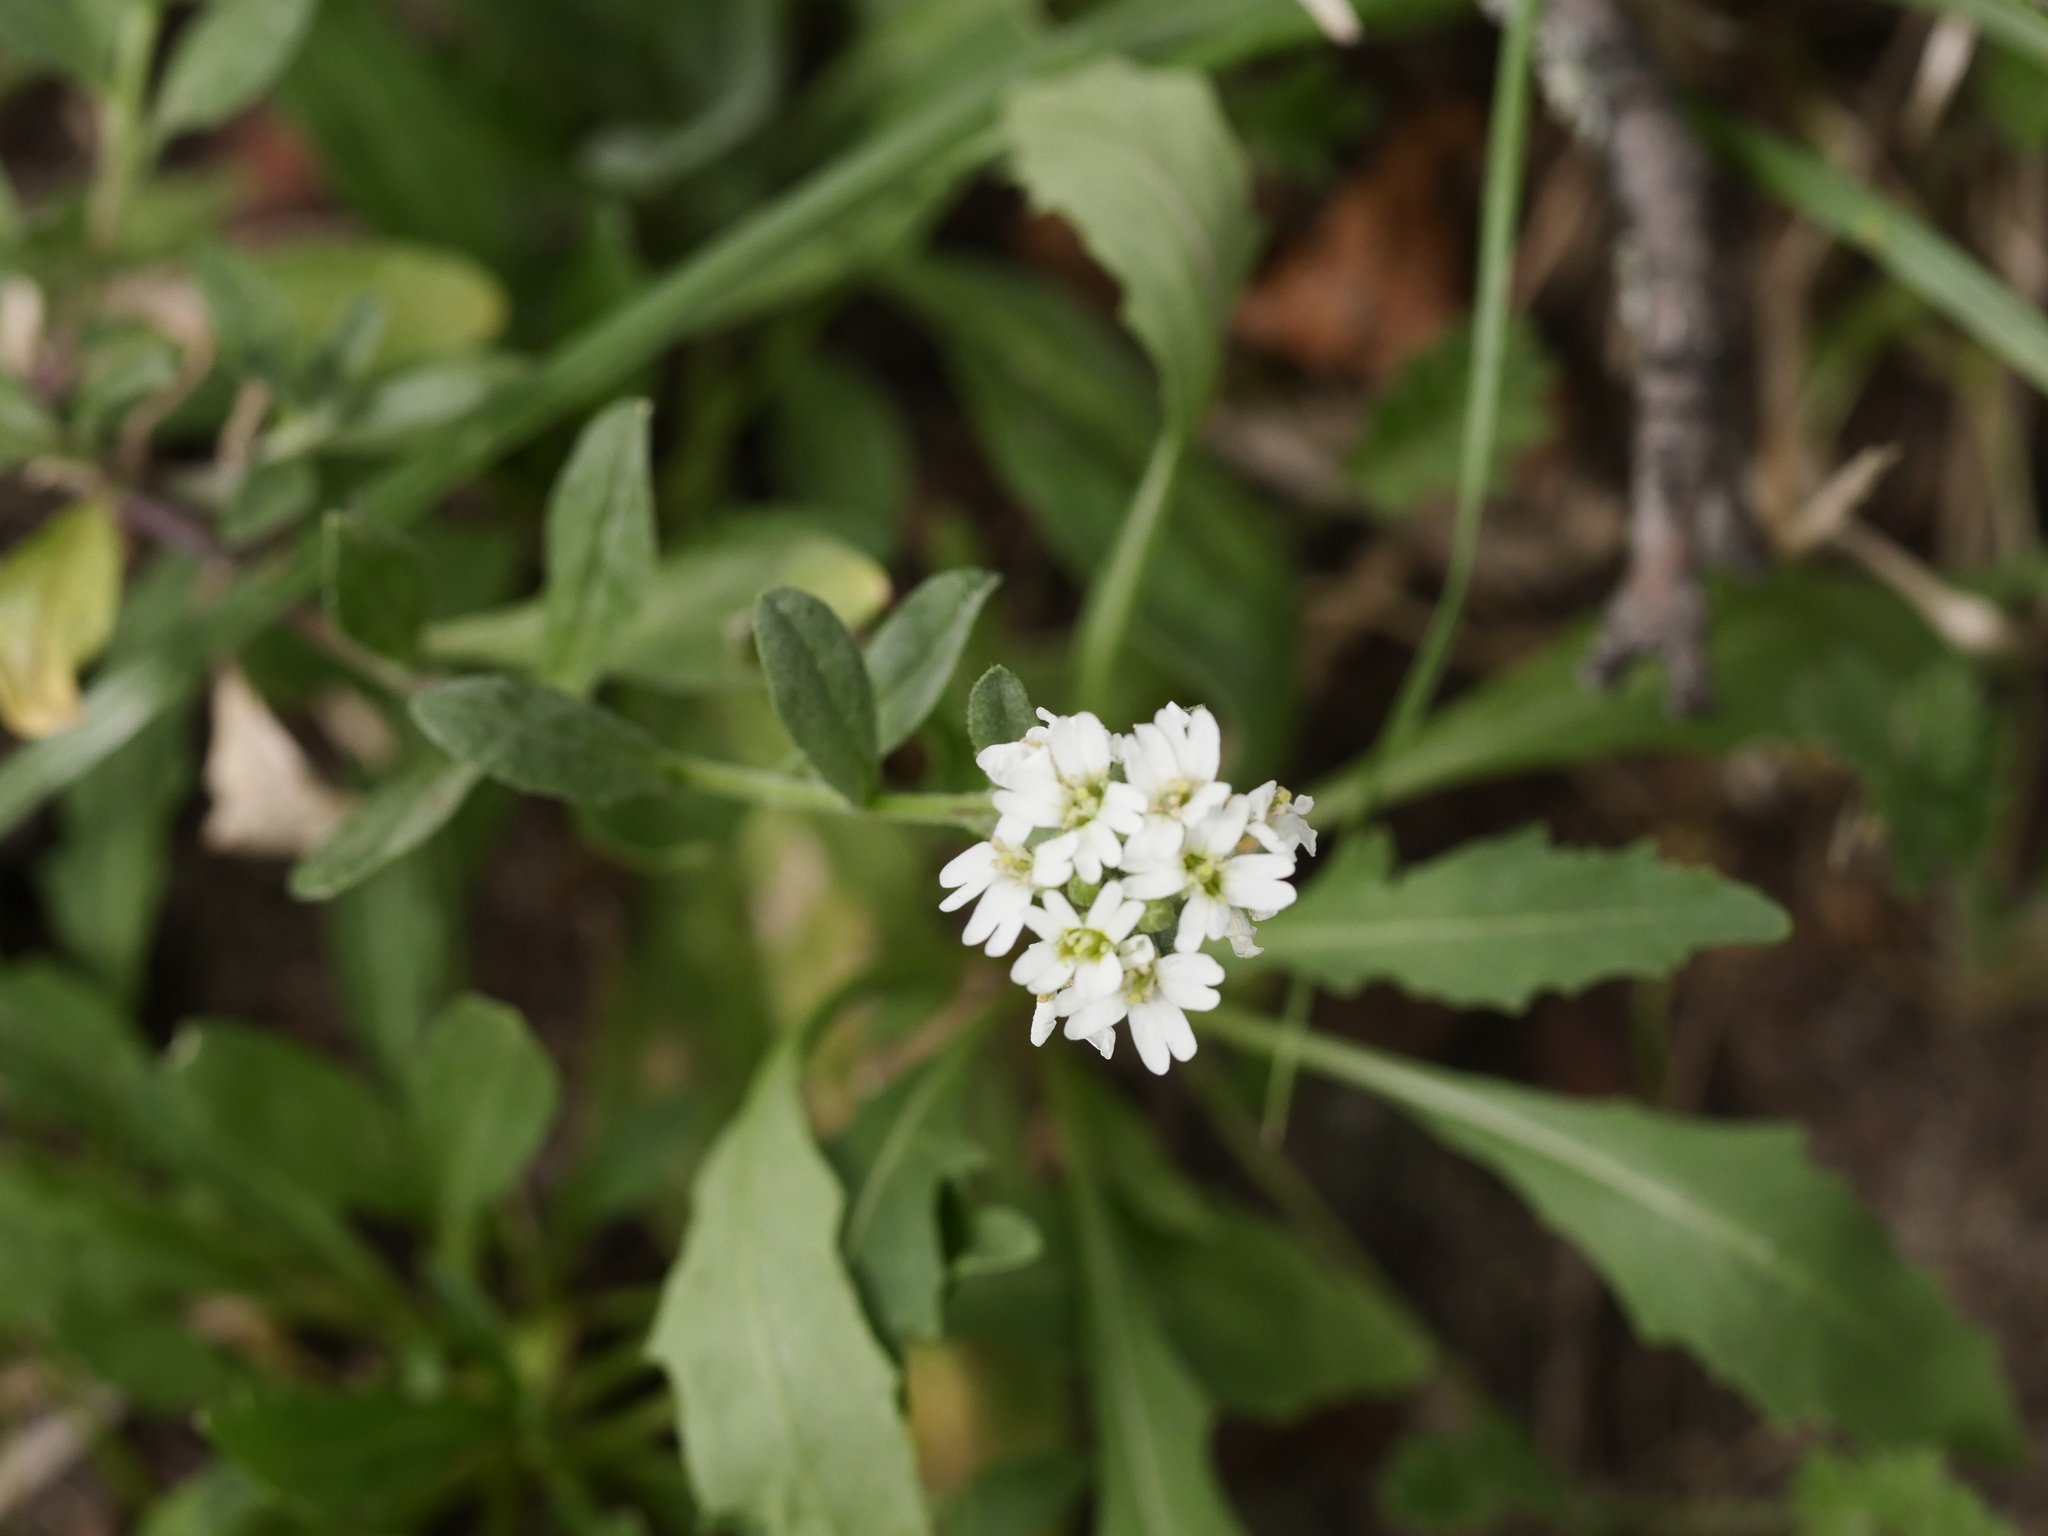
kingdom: Plantae
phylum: Tracheophyta
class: Magnoliopsida
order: Brassicales
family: Brassicaceae
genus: Berteroa
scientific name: Berteroa incana
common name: Hoary alison
